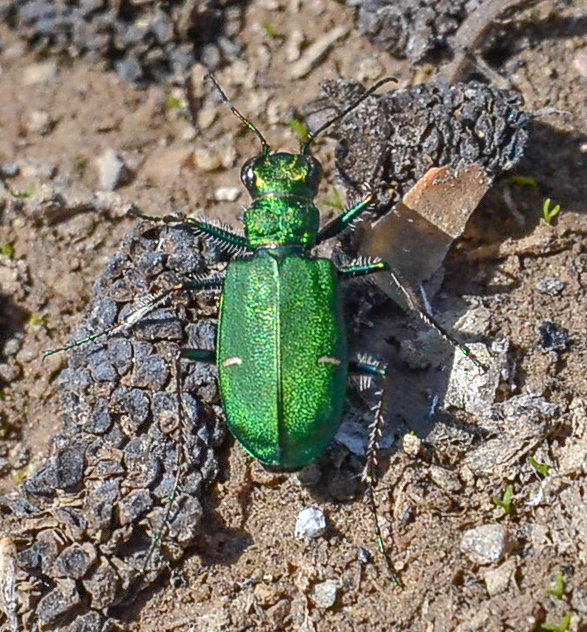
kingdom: Animalia
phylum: Arthropoda
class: Insecta
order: Coleoptera
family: Carabidae
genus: Cicindela
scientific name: Cicindela longilabris
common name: Boreal long-lipped tiger beetle
